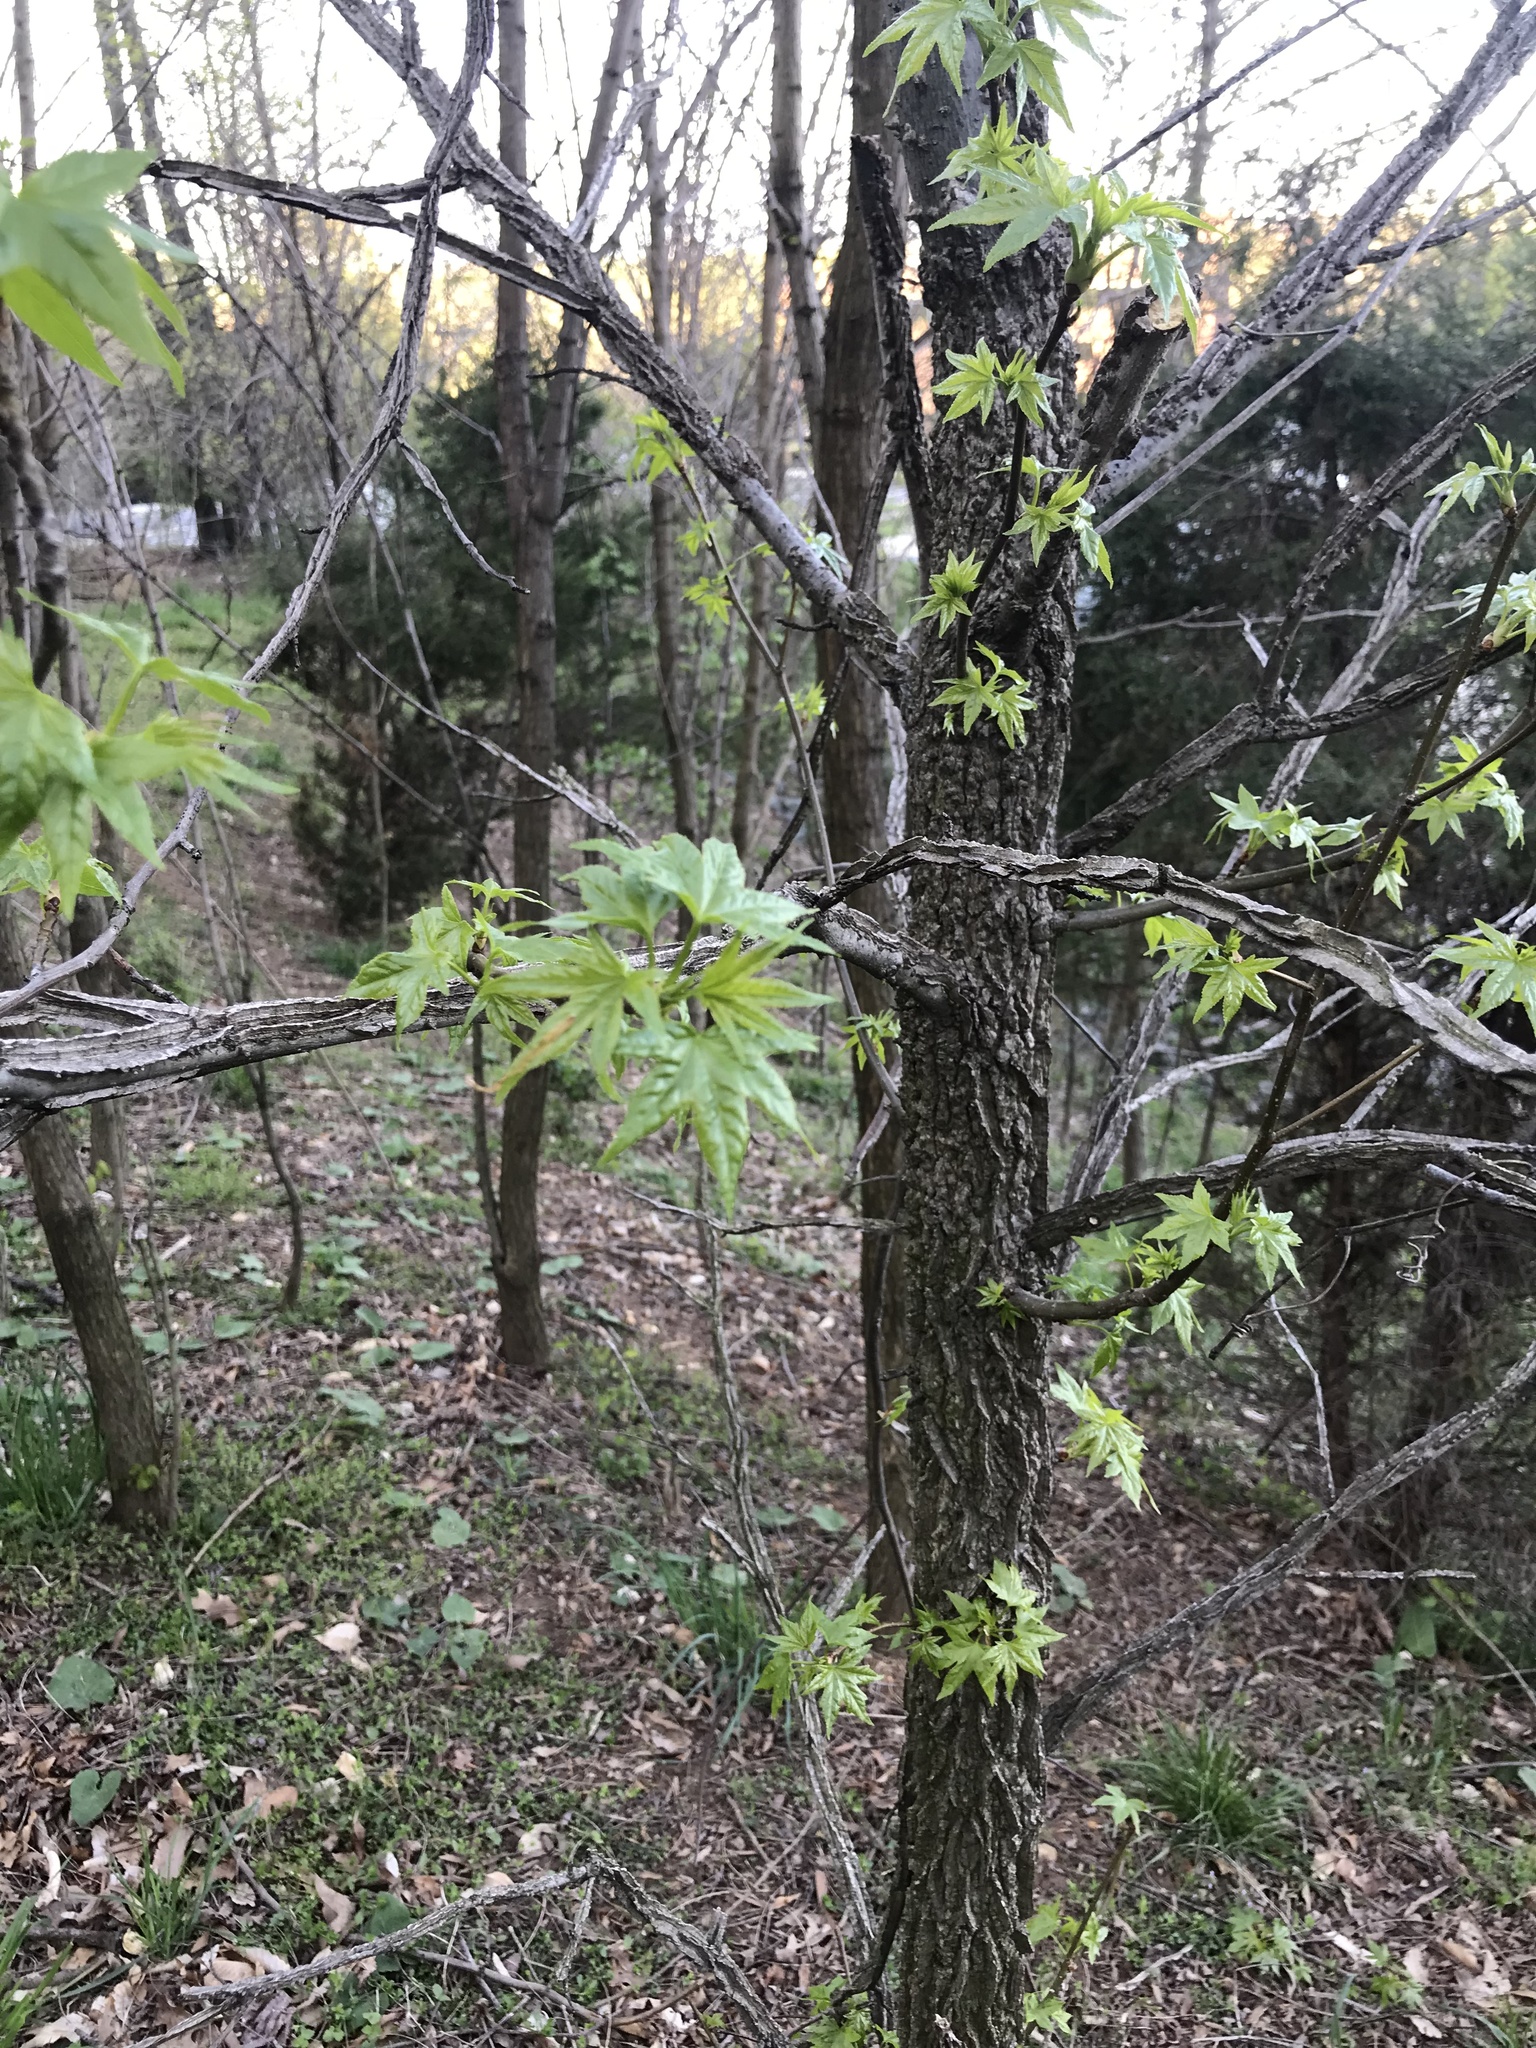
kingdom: Plantae
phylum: Tracheophyta
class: Magnoliopsida
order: Saxifragales
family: Altingiaceae
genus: Liquidambar
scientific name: Liquidambar styraciflua
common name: Sweet gum
